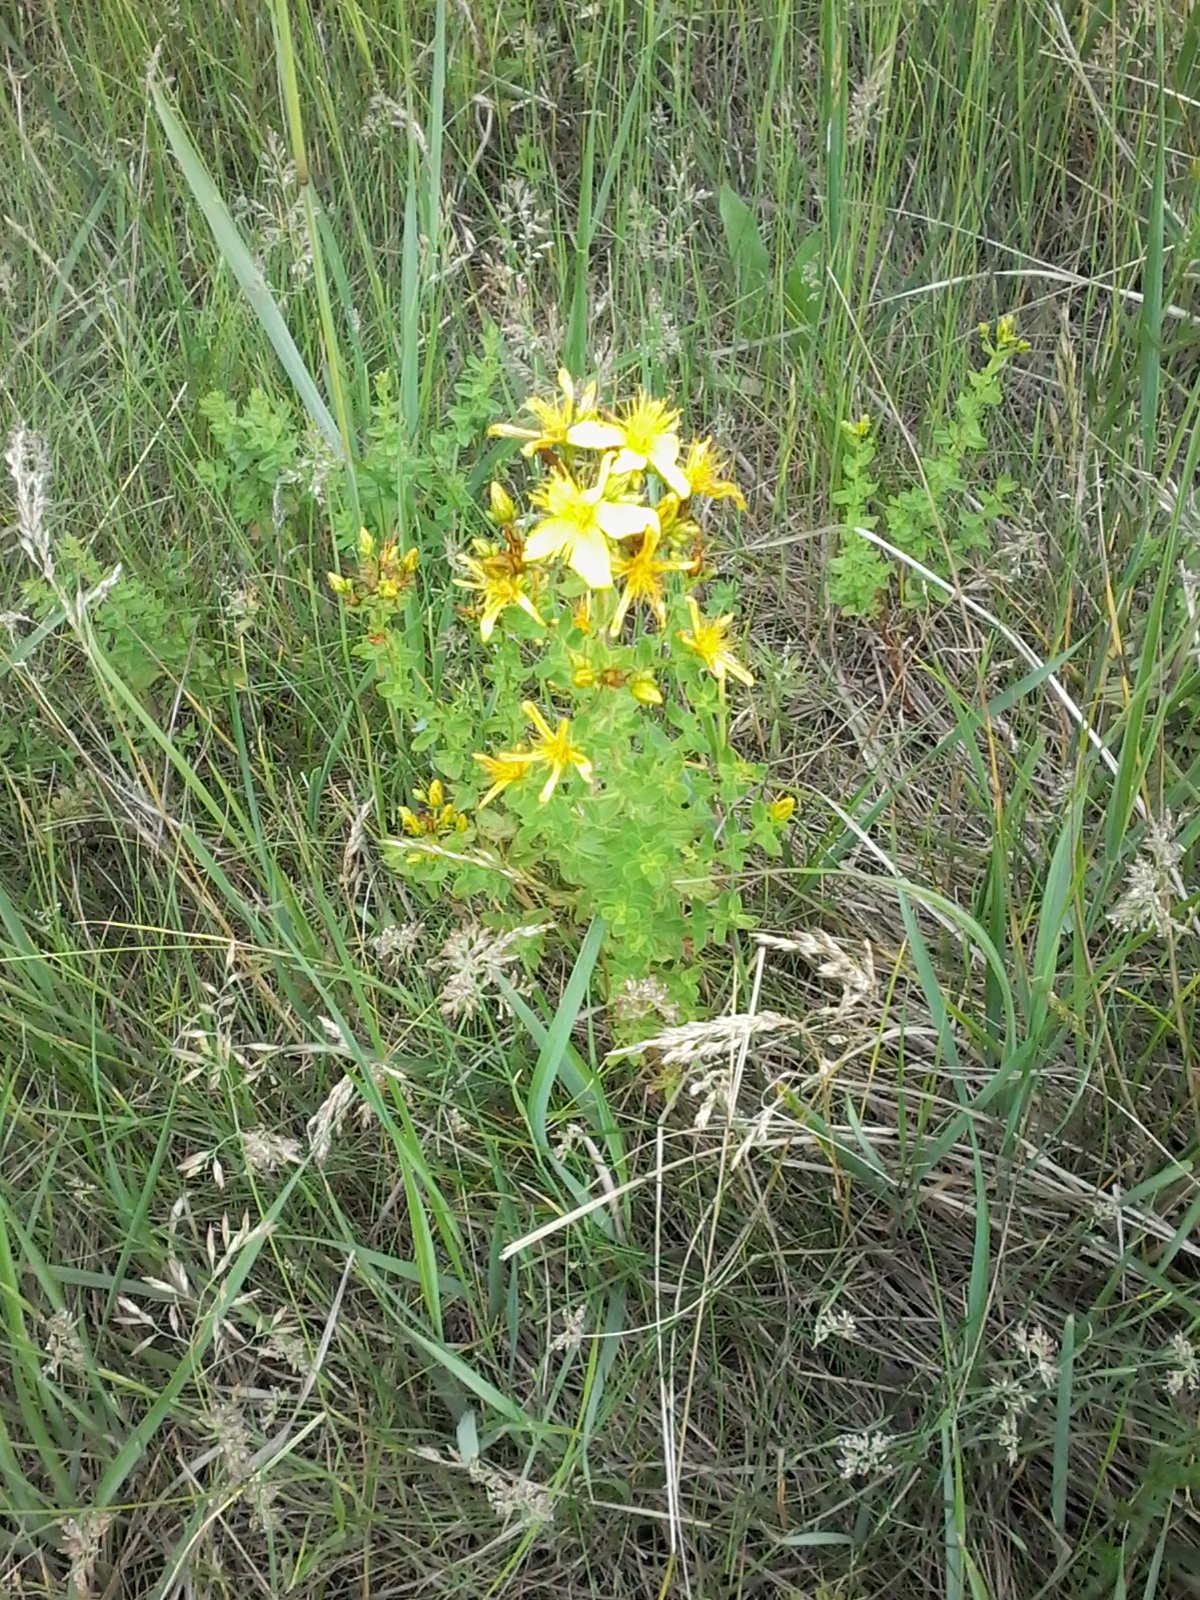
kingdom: Plantae
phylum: Tracheophyta
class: Magnoliopsida
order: Malpighiales
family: Hypericaceae
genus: Hypericum
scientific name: Hypericum perforatum
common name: Common st. johnswort
